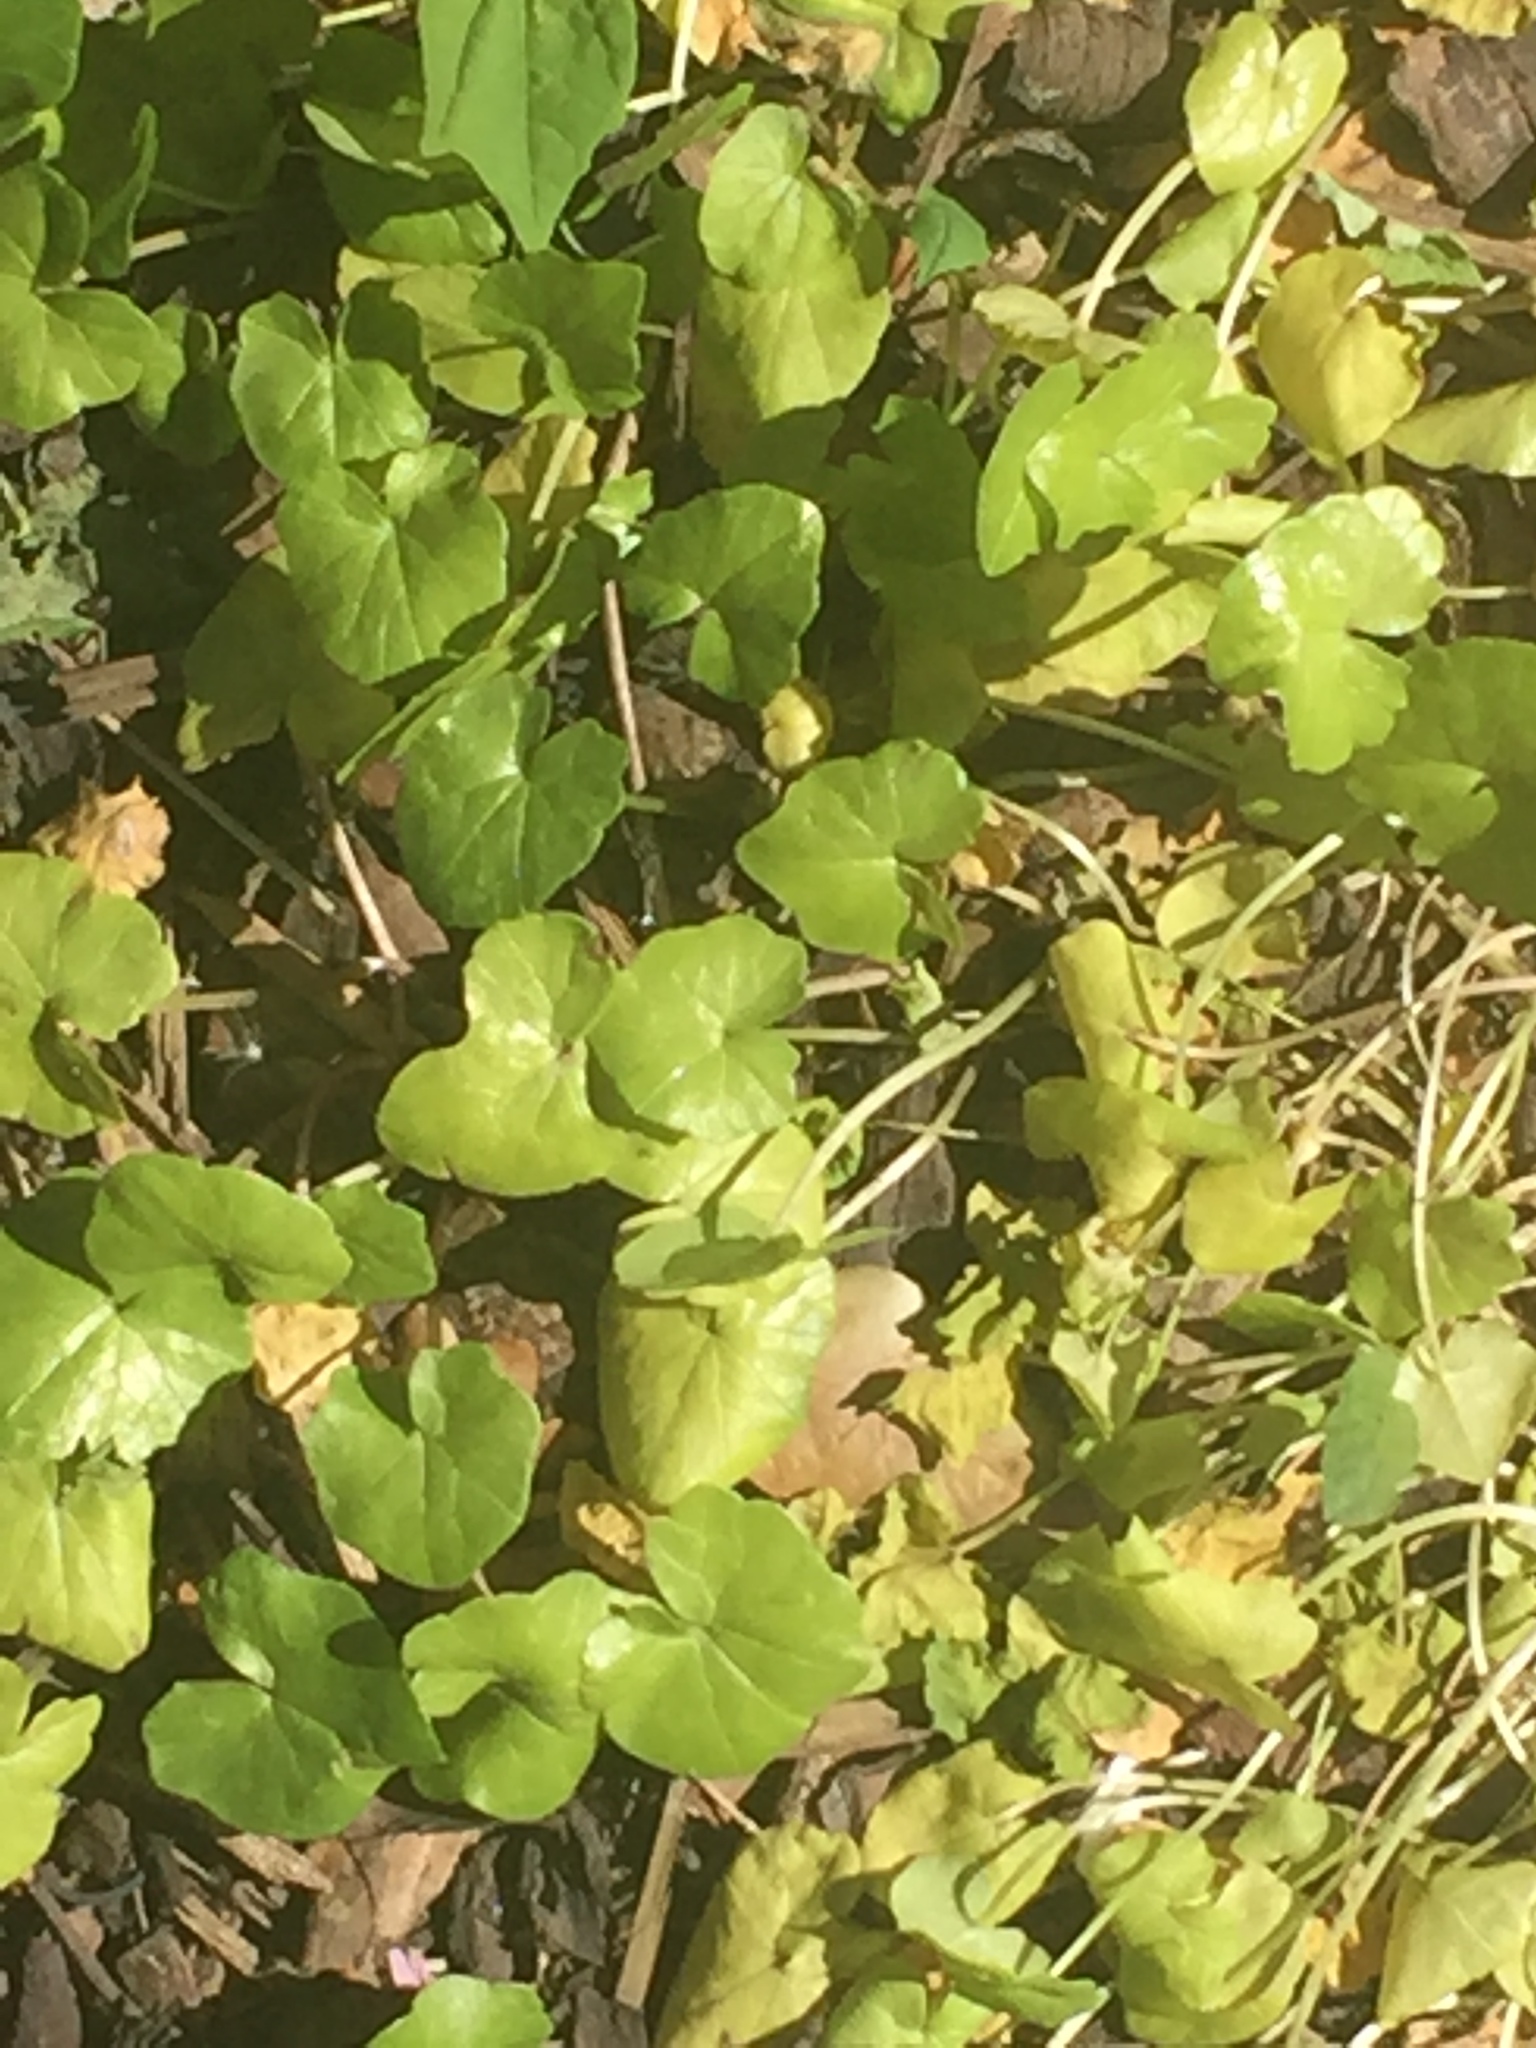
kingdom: Plantae
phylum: Tracheophyta
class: Magnoliopsida
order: Ranunculales
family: Ranunculaceae
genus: Ficaria
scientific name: Ficaria verna
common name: Lesser celandine
